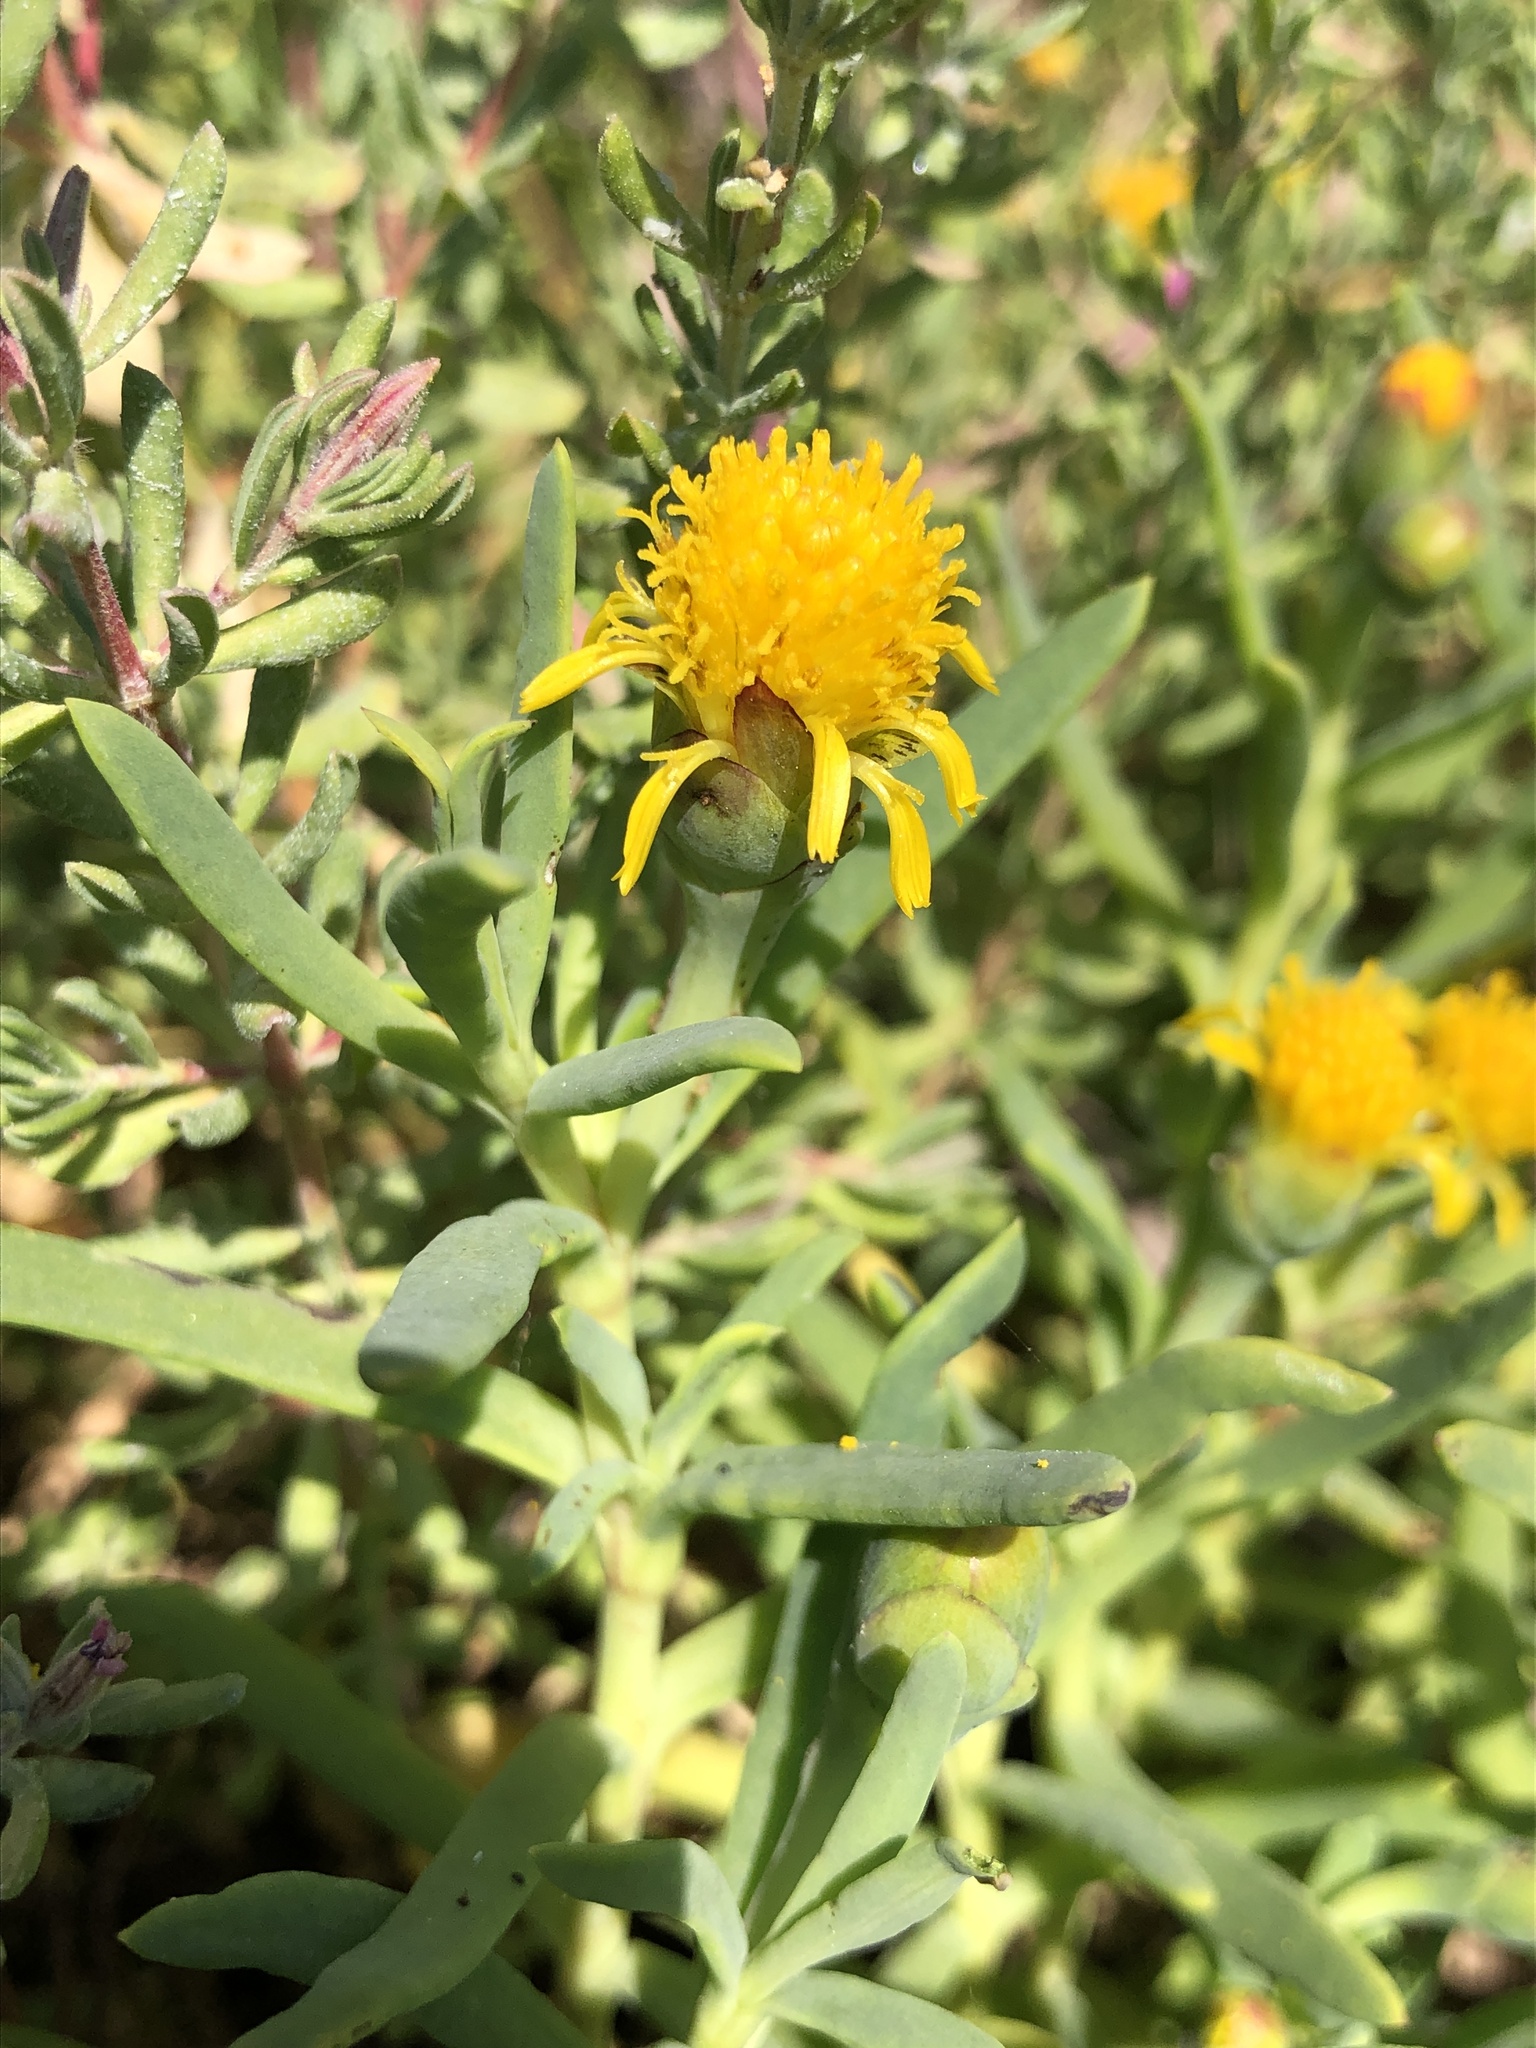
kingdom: Plantae
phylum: Tracheophyta
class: Magnoliopsida
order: Asterales
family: Asteraceae
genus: Jaumea
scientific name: Jaumea carnosa
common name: Fleshy jaumea
